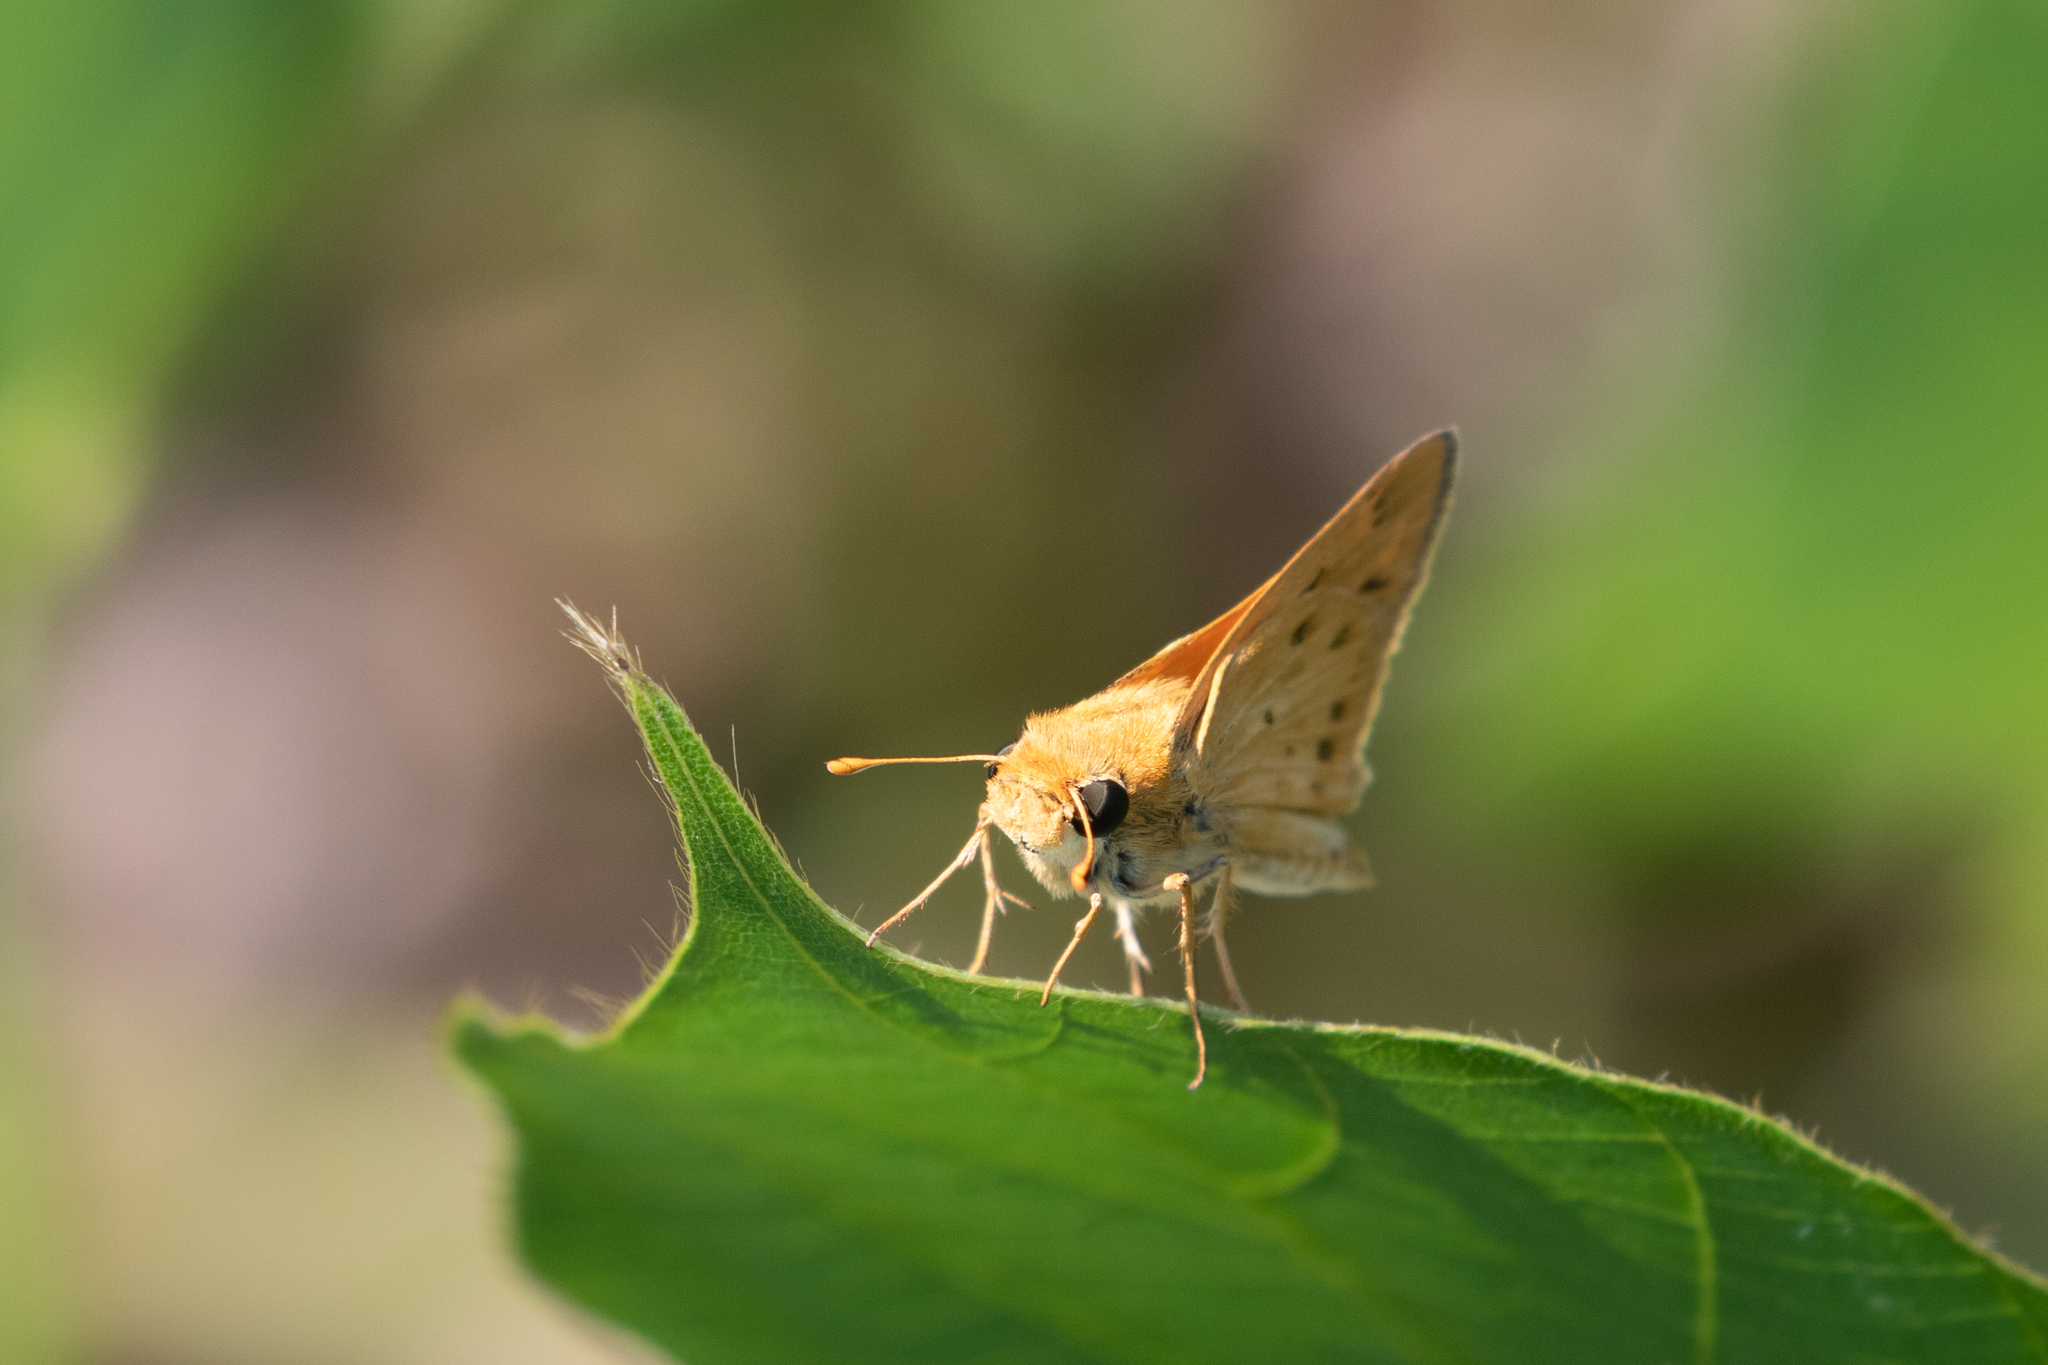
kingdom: Animalia
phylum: Arthropoda
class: Insecta
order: Lepidoptera
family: Hesperiidae
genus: Hylephila
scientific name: Hylephila phyleus
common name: Fiery skipper
